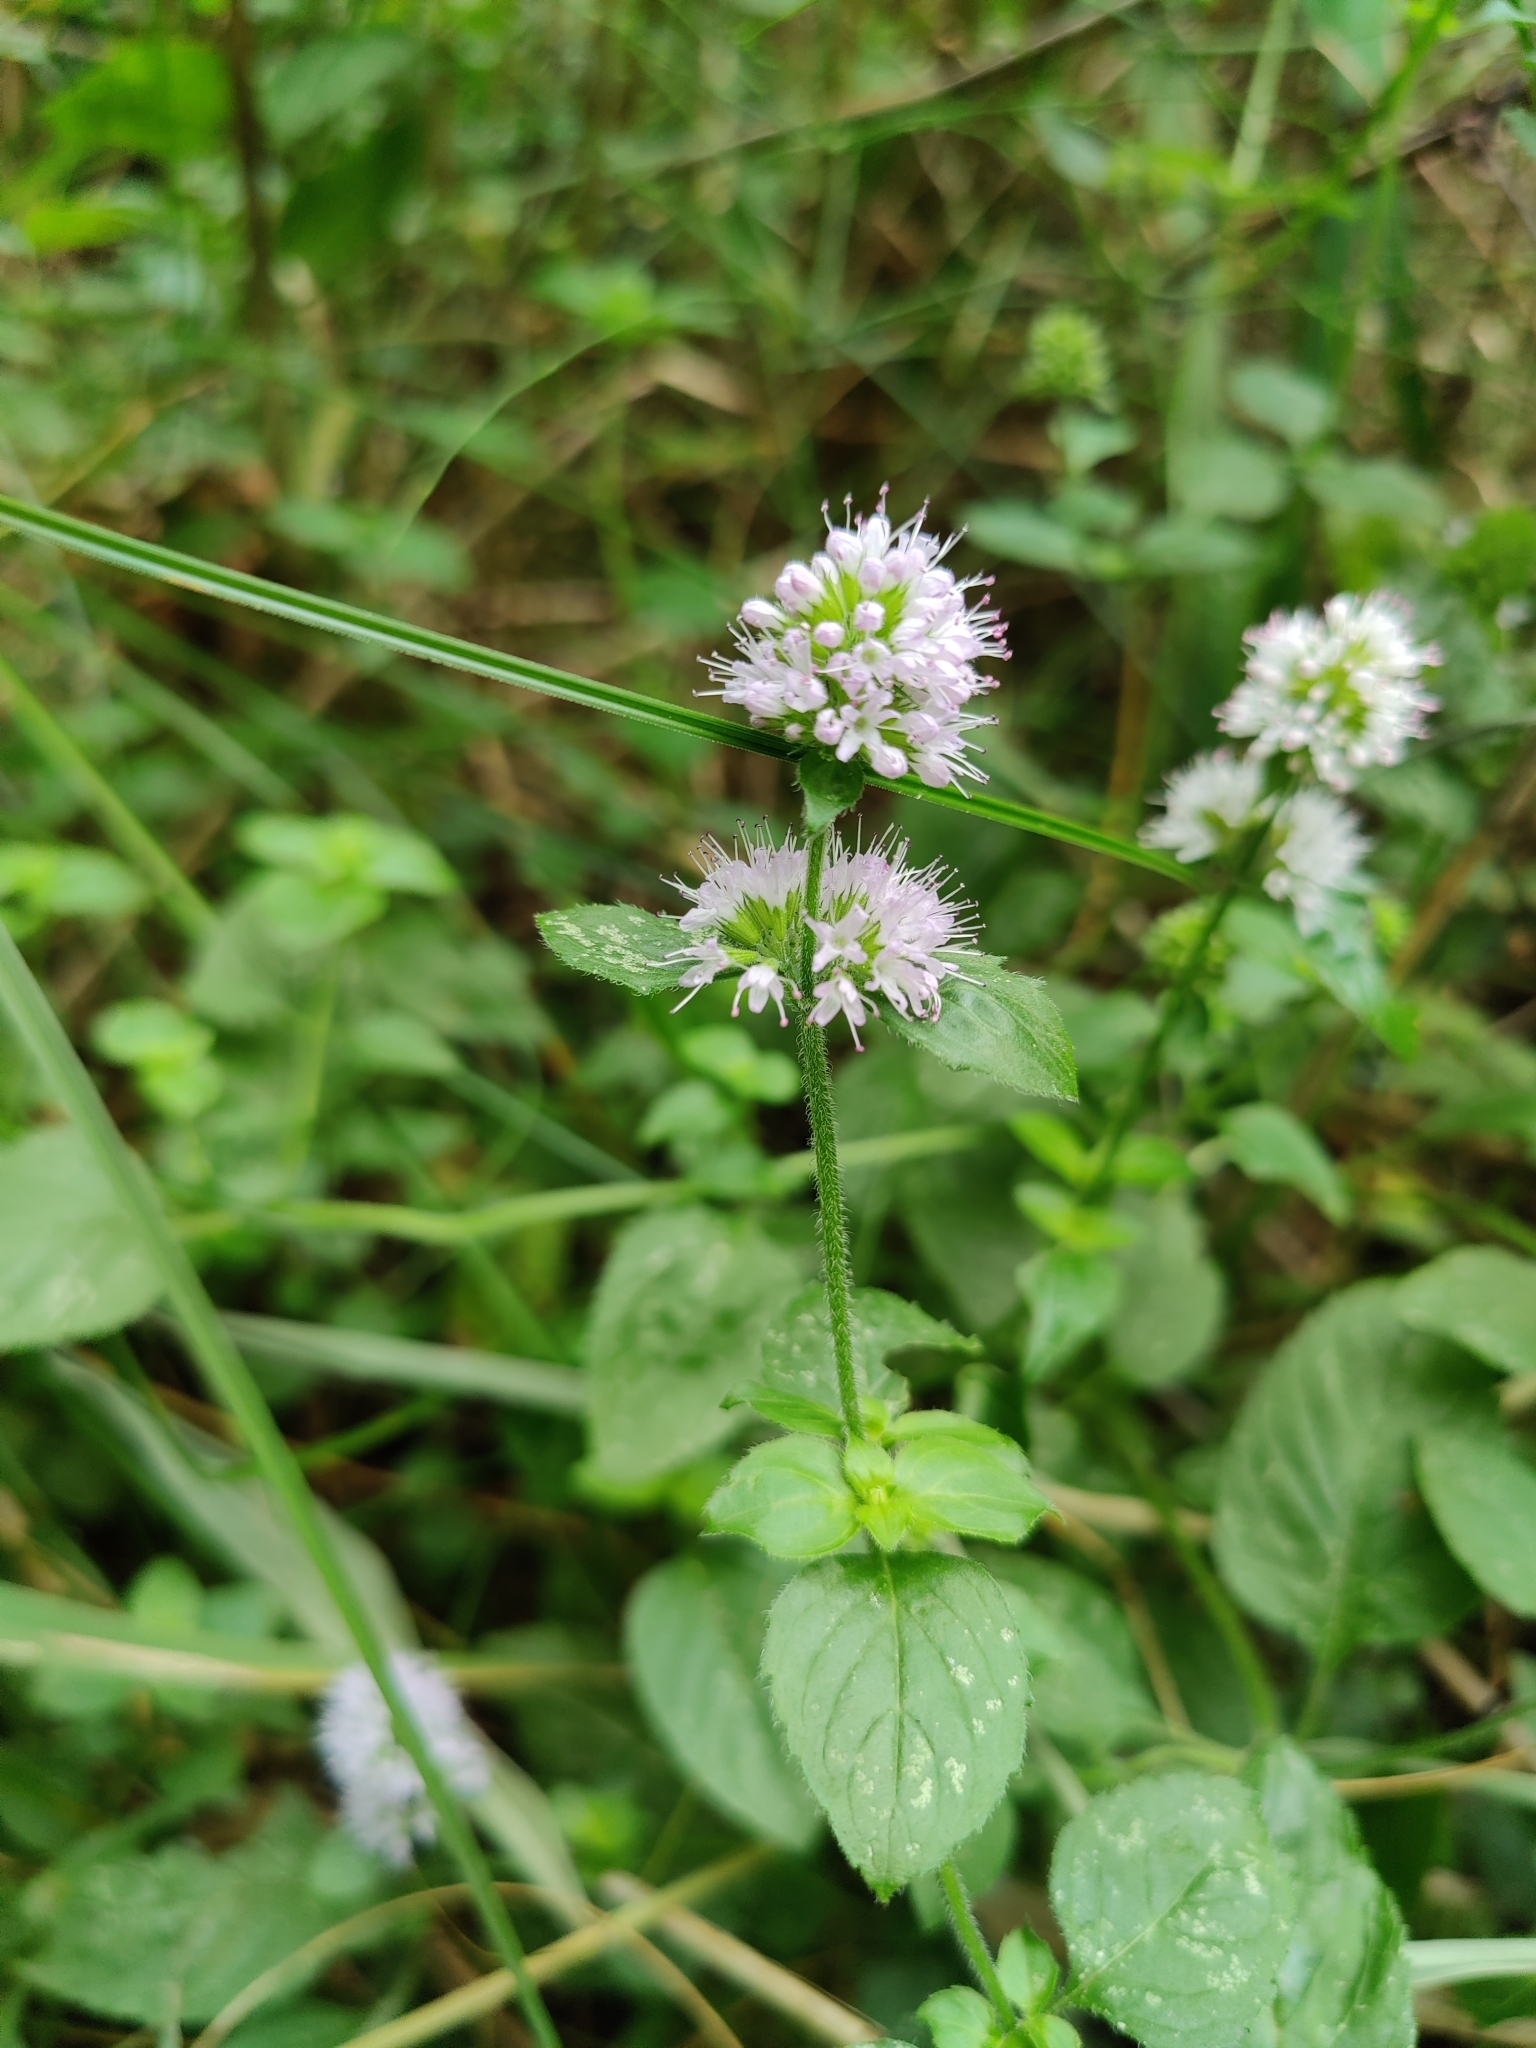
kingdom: Plantae
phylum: Tracheophyta
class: Magnoliopsida
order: Lamiales
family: Lamiaceae
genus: Mentha
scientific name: Mentha aquatica
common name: Water mint
